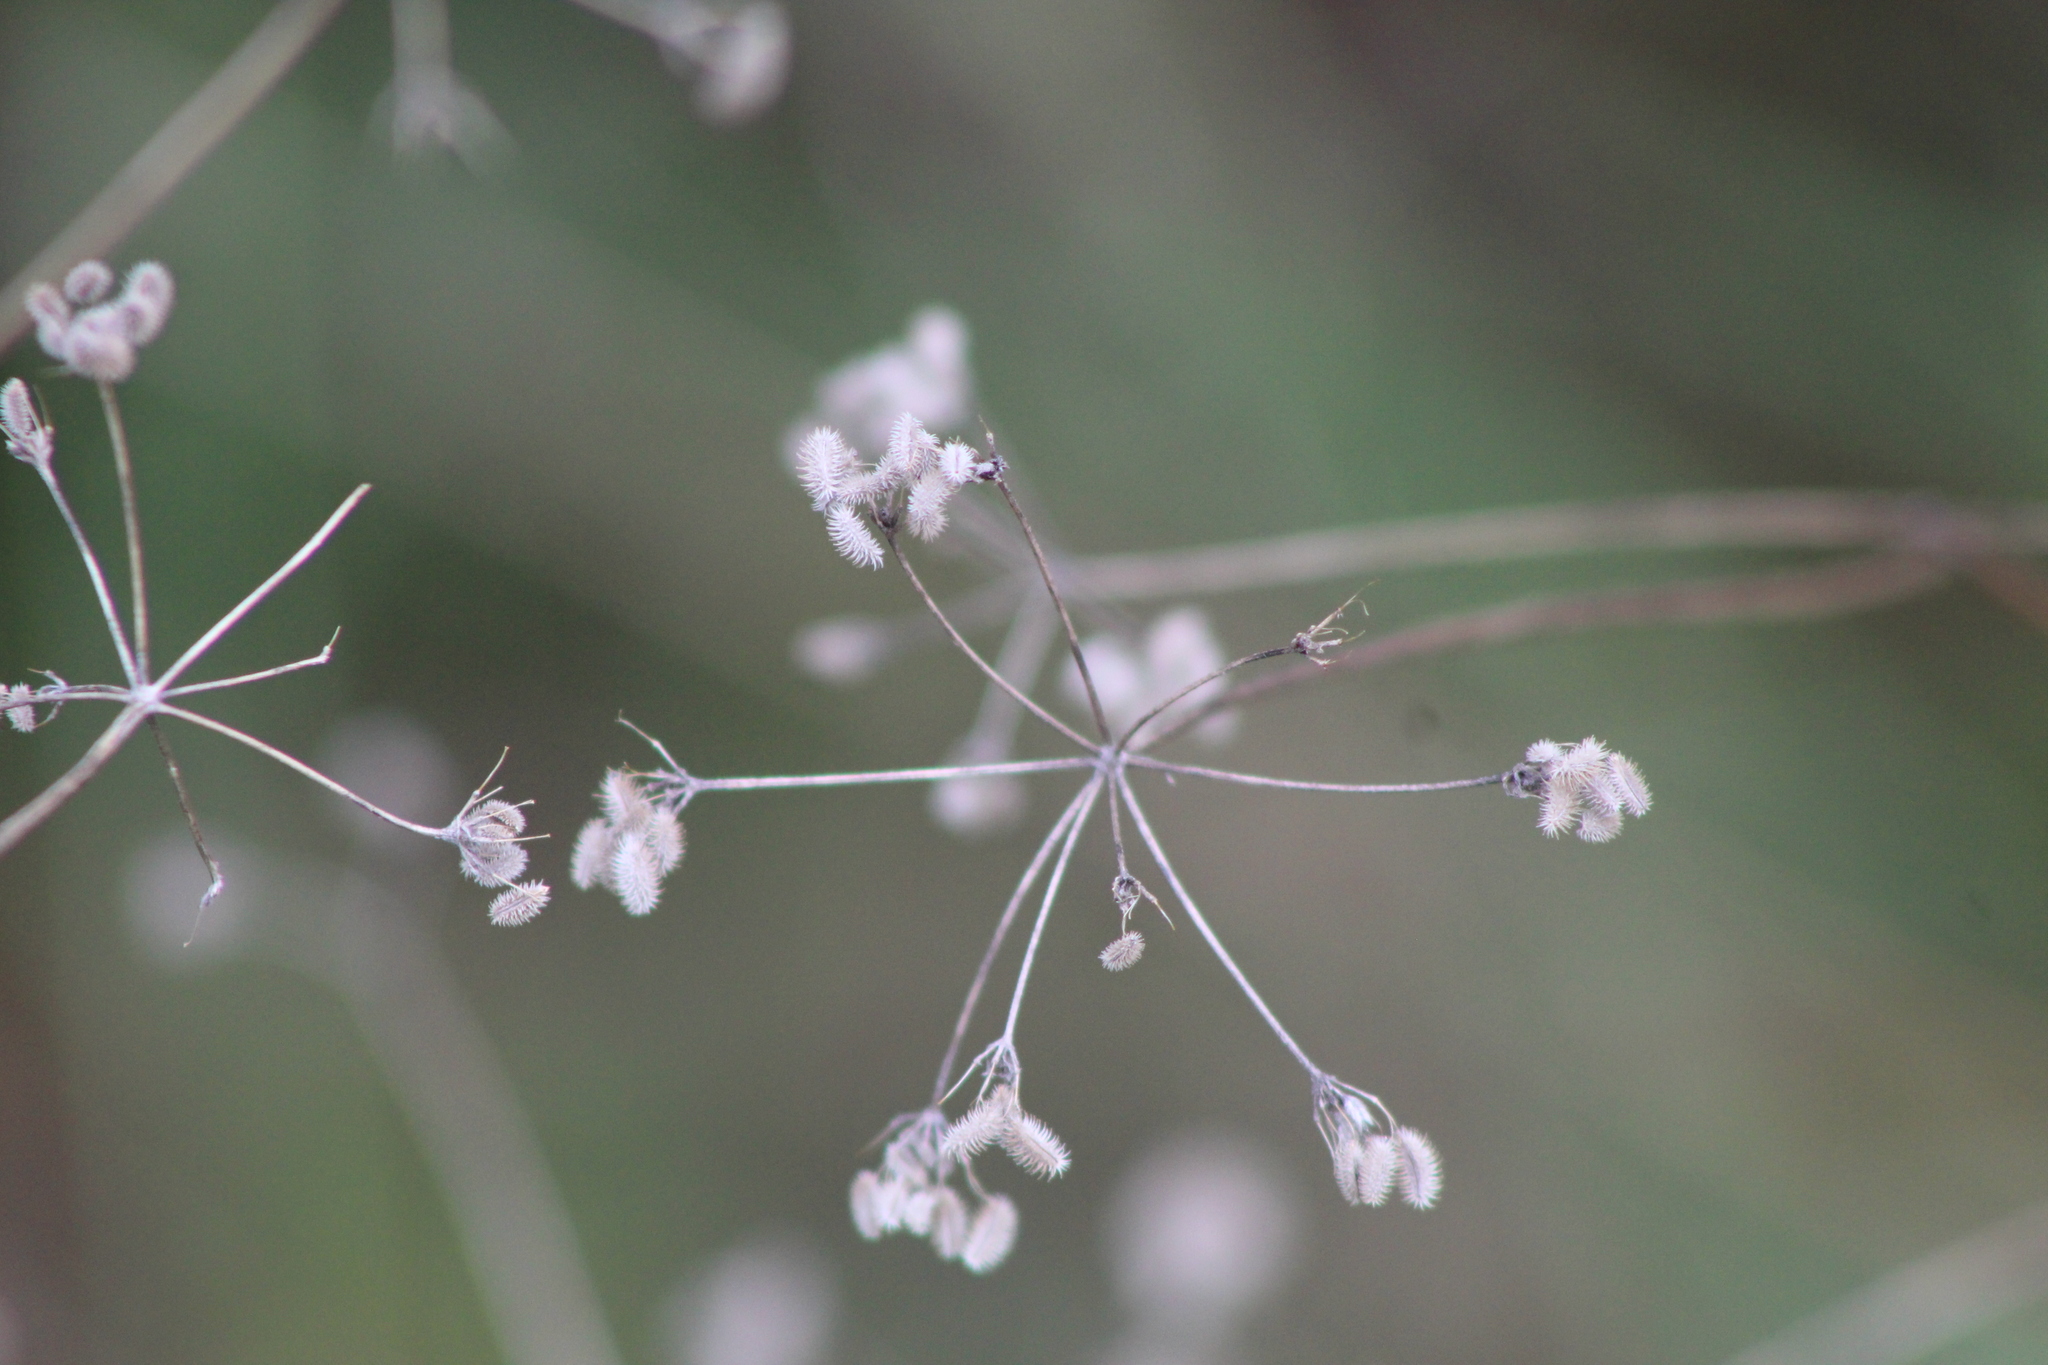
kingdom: Plantae
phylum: Tracheophyta
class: Magnoliopsida
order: Apiales
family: Apiaceae
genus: Torilis
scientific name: Torilis arvensis
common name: Spreading hedge-parsley
